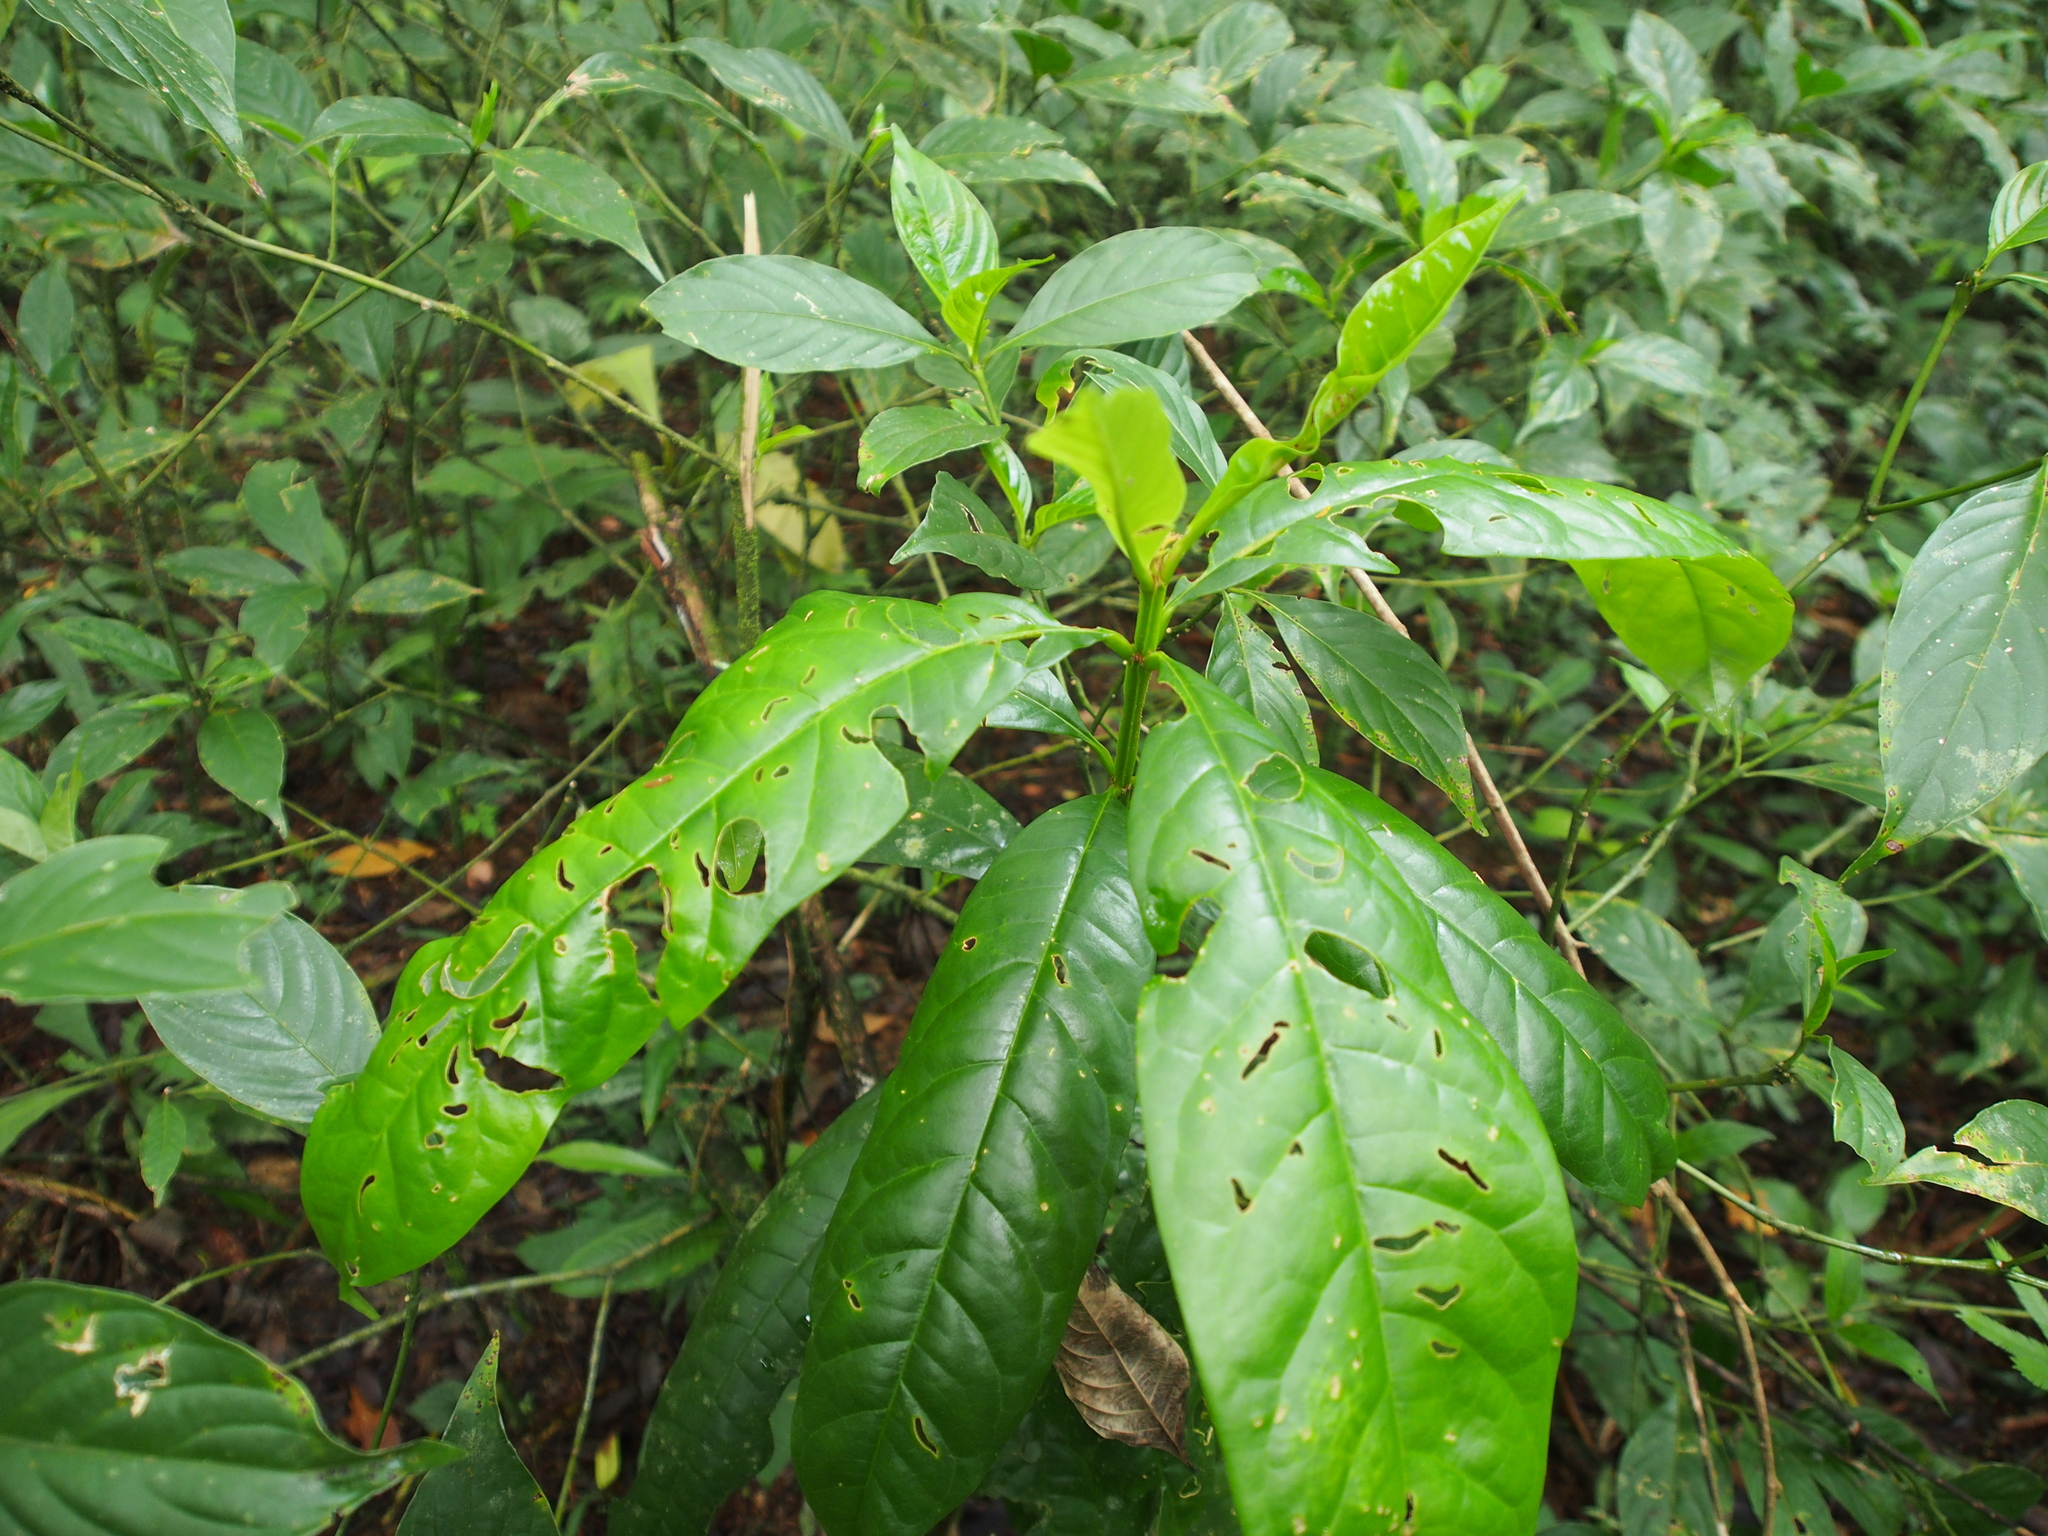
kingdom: Plantae
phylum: Tracheophyta
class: Magnoliopsida
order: Myrtales
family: Vochysiaceae
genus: Vochysia
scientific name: Vochysia guatemalensis
